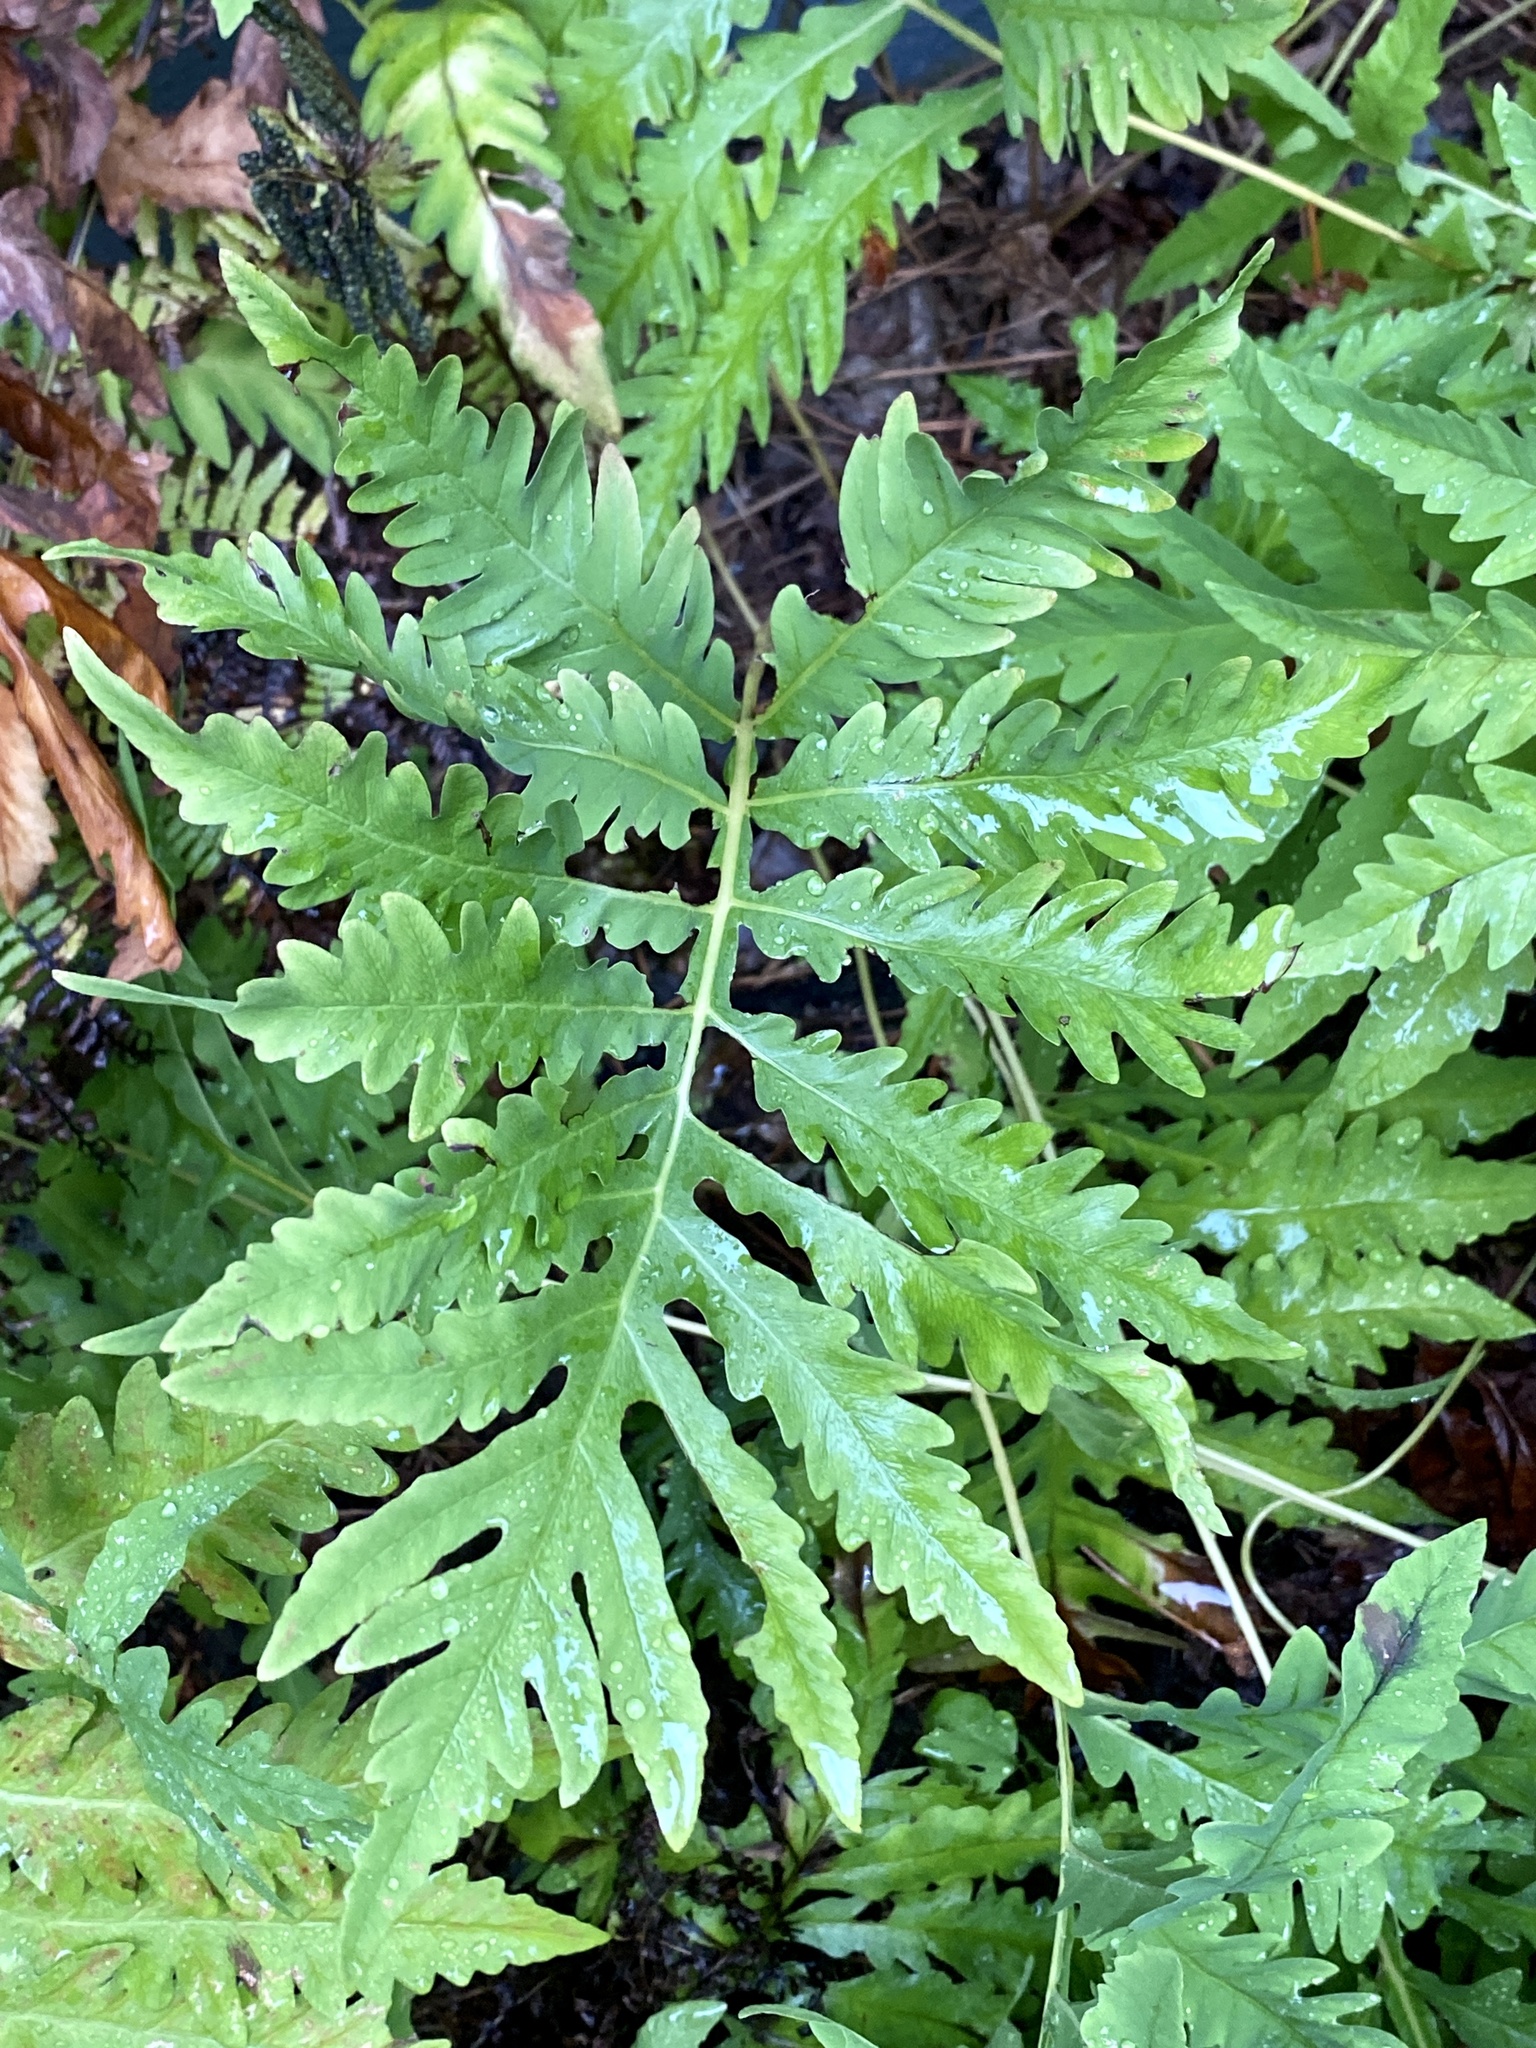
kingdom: Plantae
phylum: Tracheophyta
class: Polypodiopsida
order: Polypodiales
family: Onocleaceae
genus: Onoclea
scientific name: Onoclea sensibilis
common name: Sensitive fern
